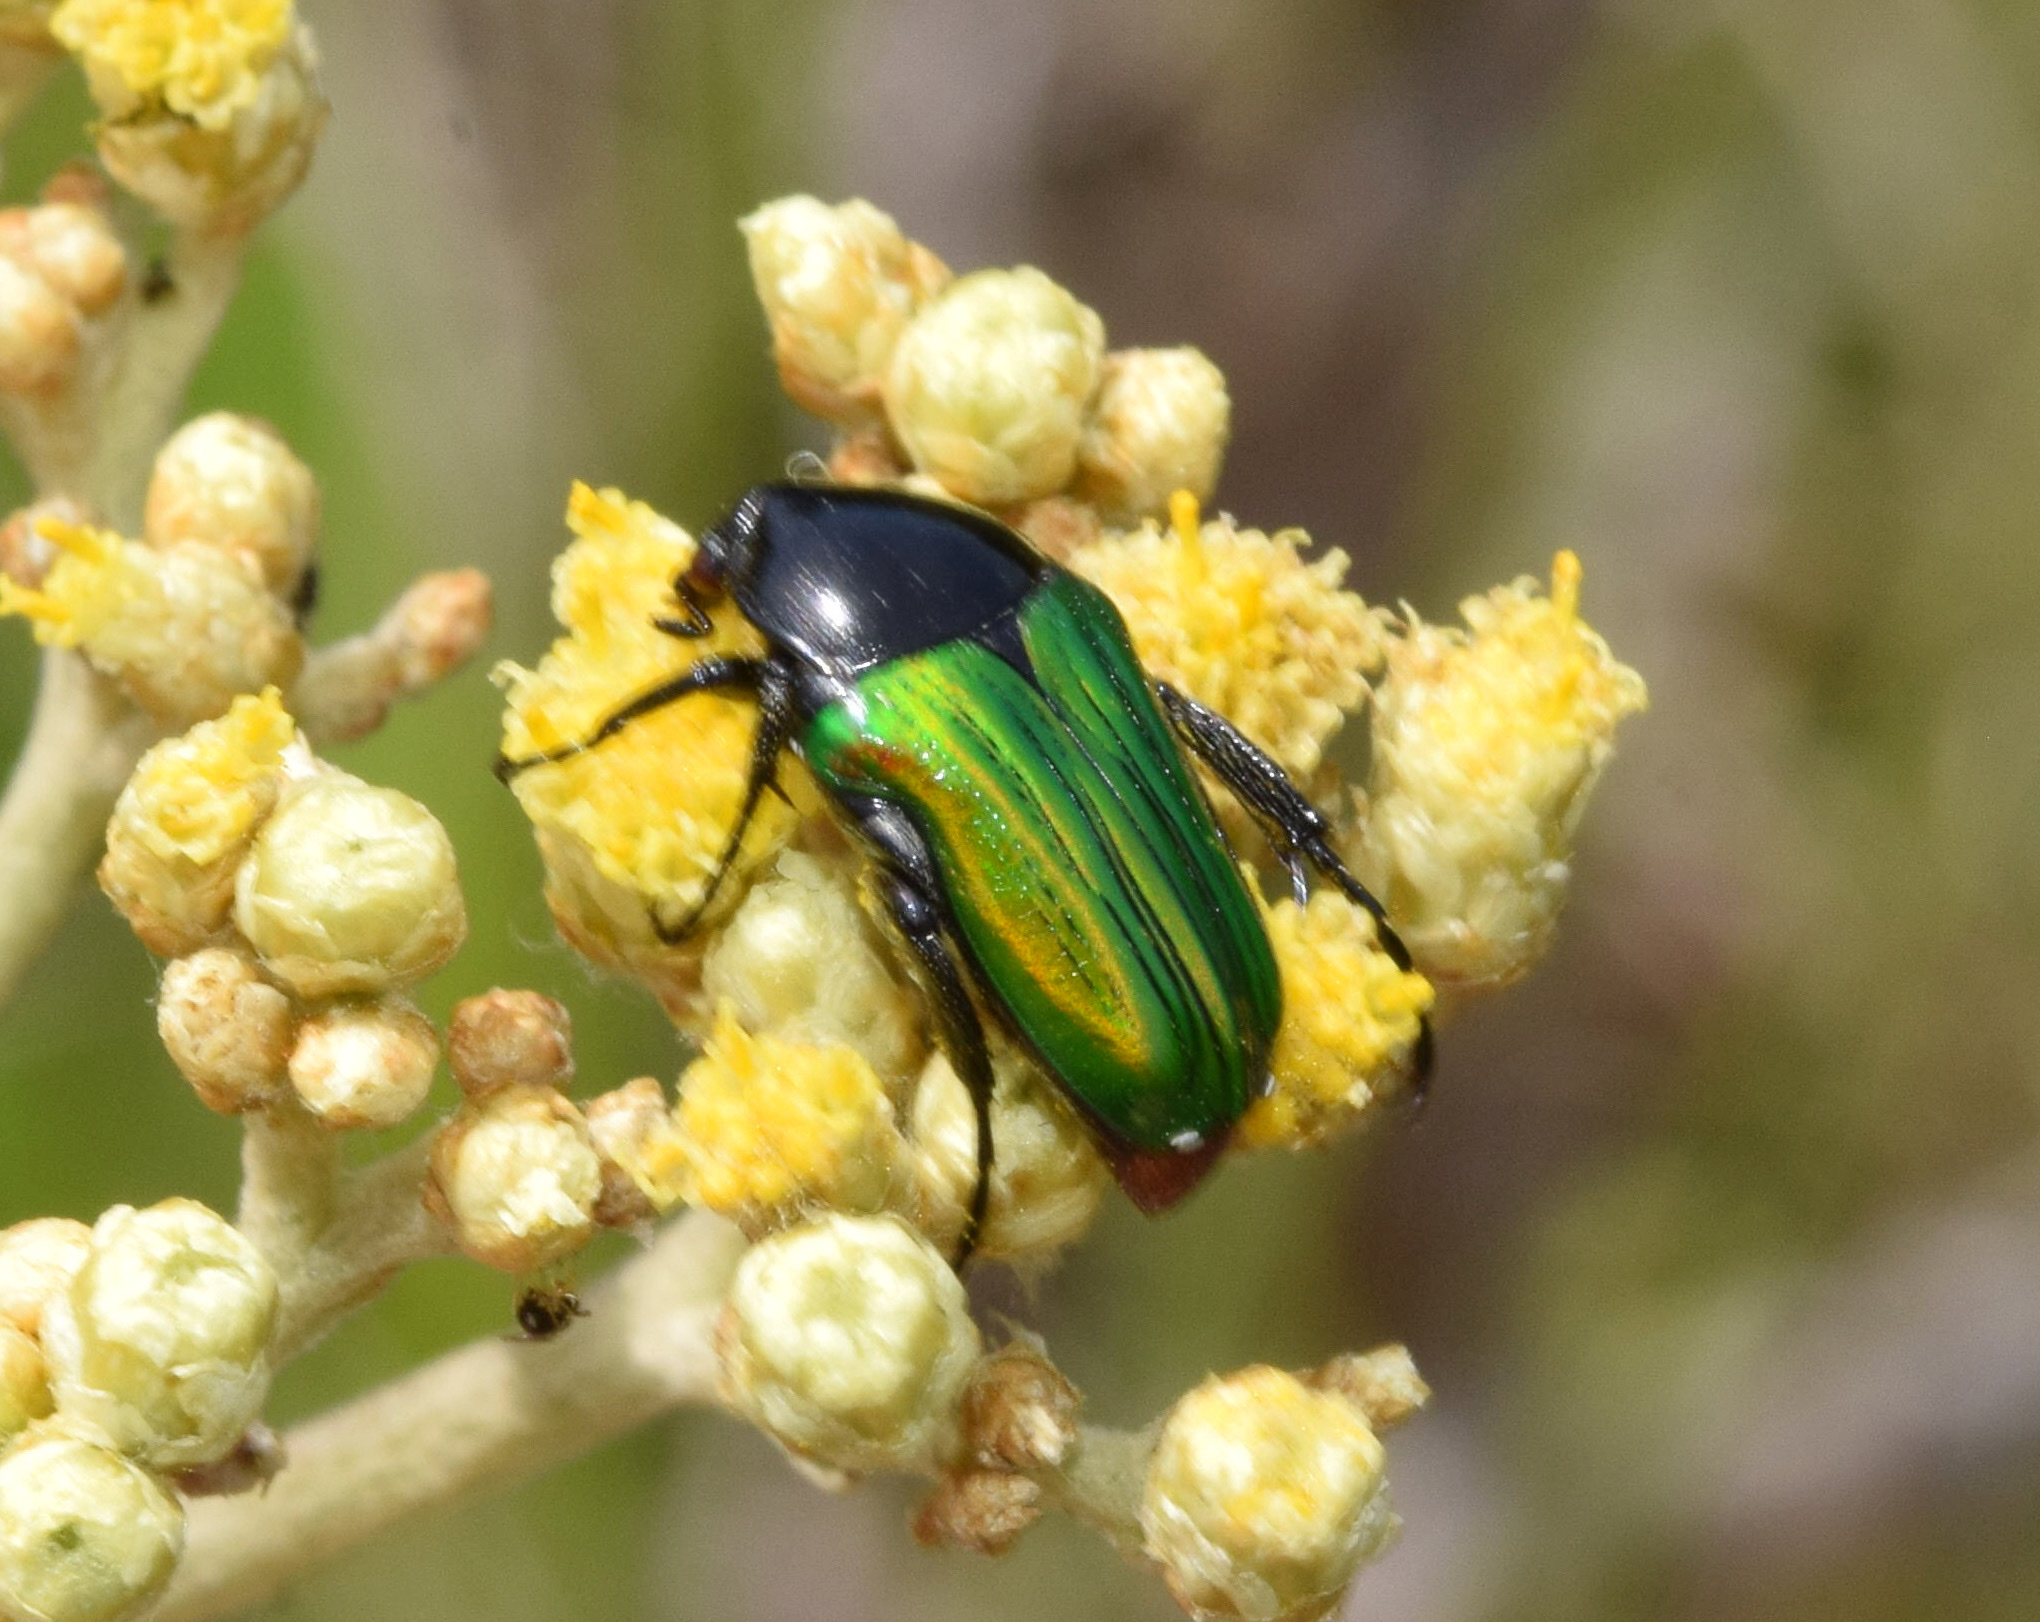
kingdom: Animalia
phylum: Arthropoda
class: Insecta
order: Coleoptera
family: Scarabaeidae
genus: Leucocelis
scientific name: Leucocelis haemorrhoidalis
